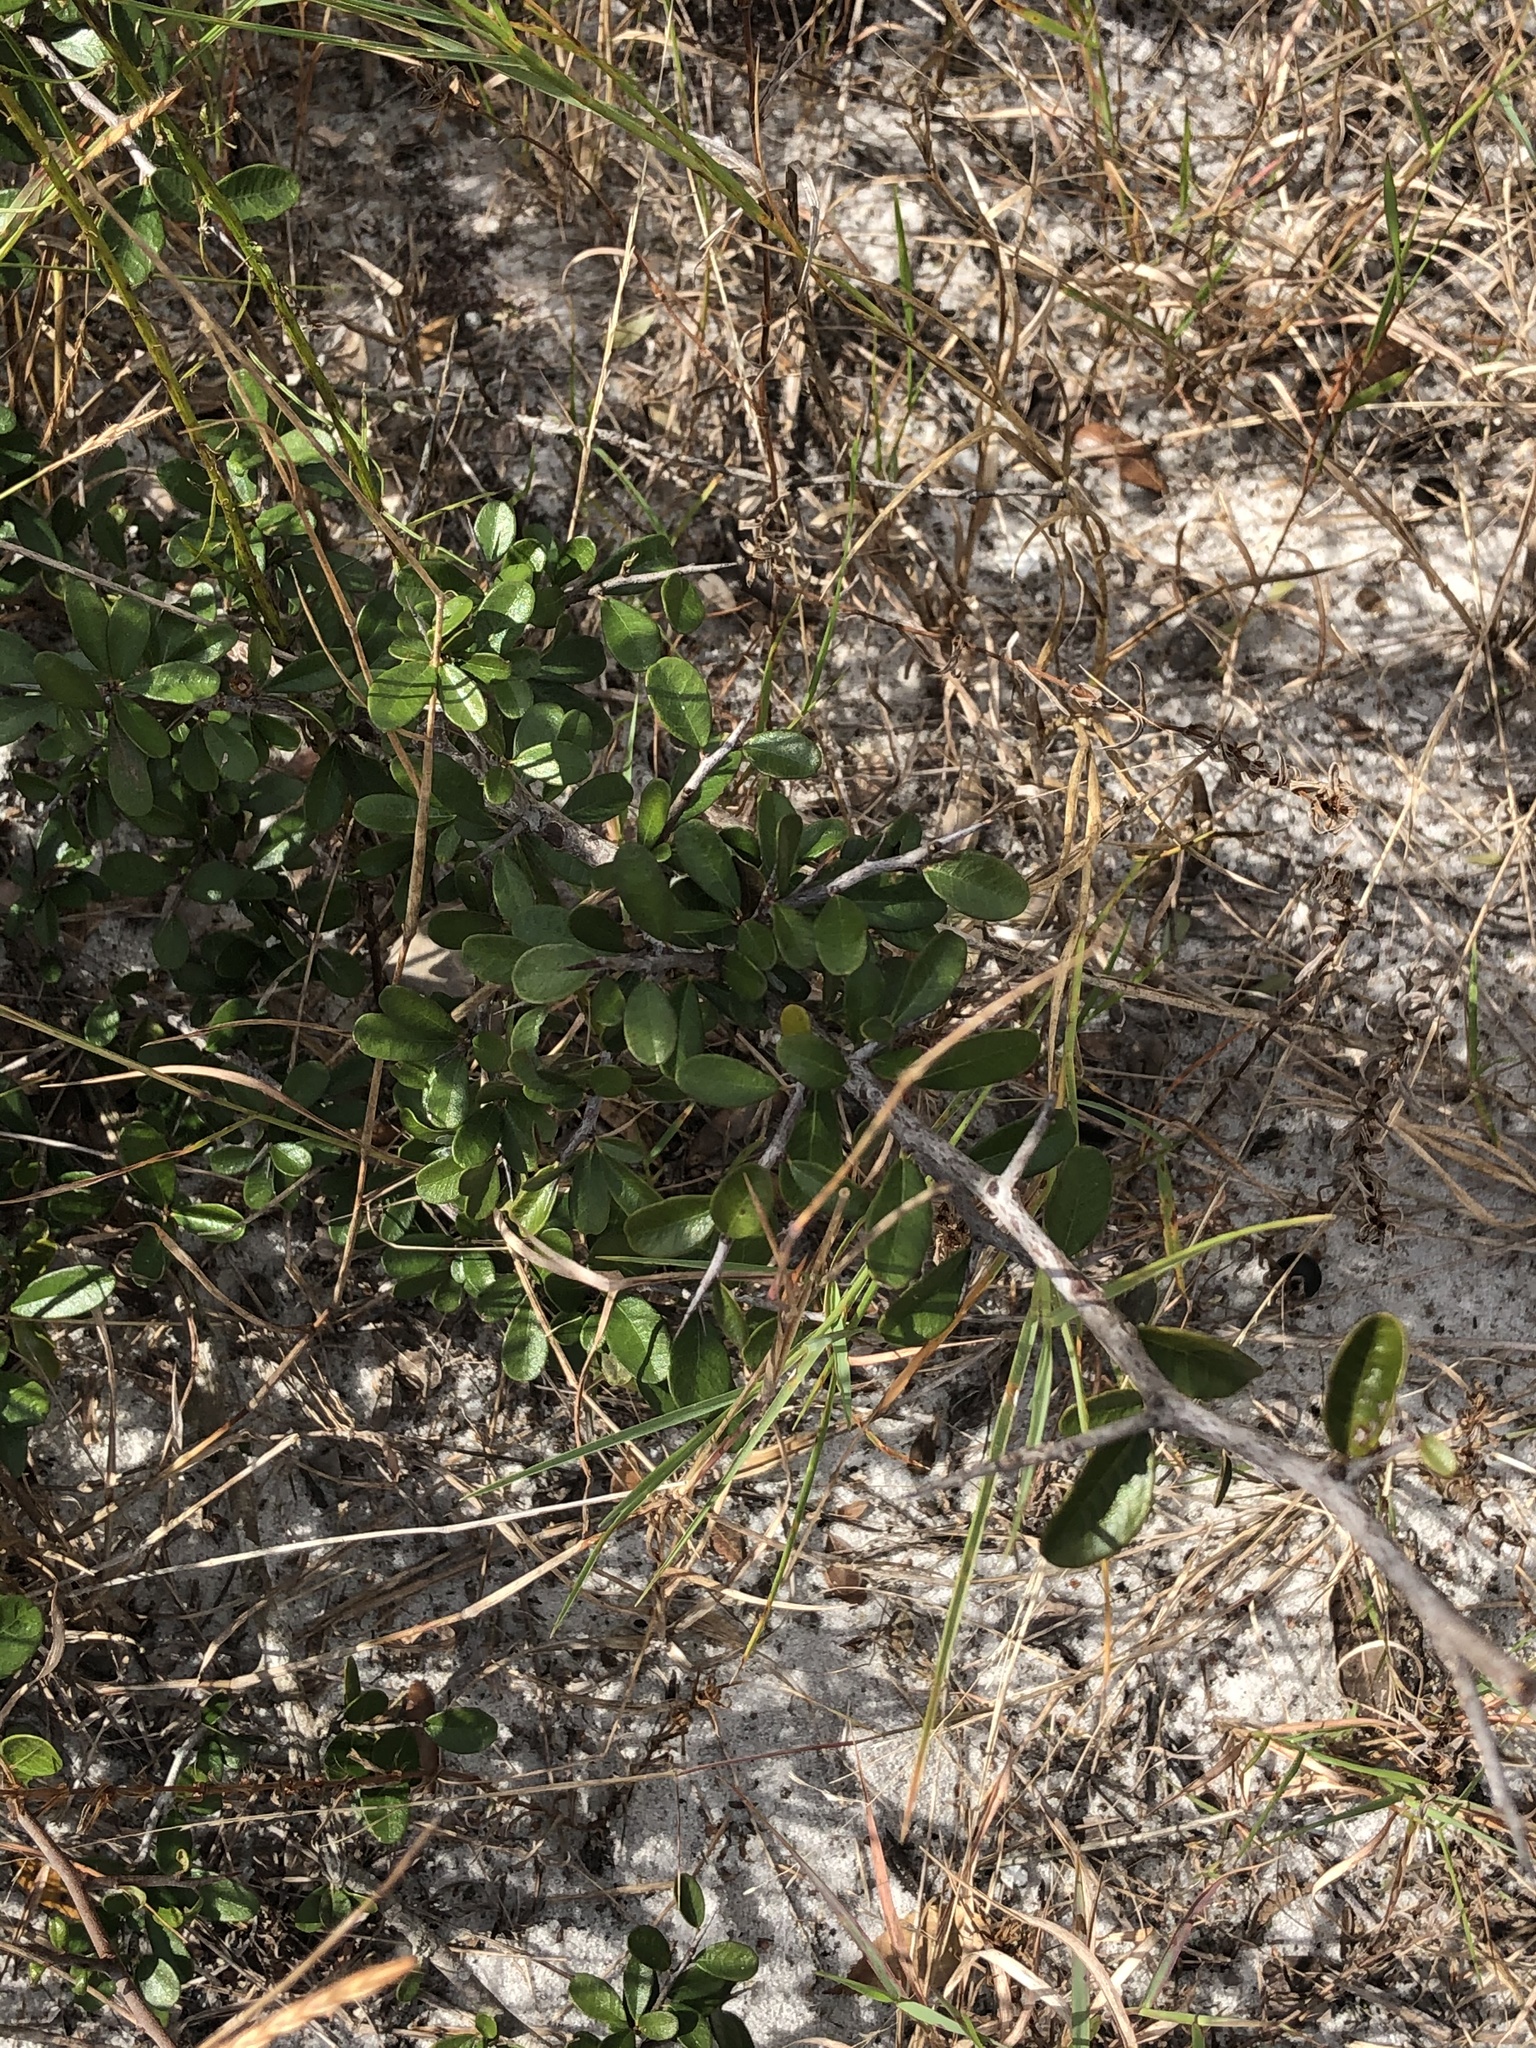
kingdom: Plantae
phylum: Tracheophyta
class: Magnoliopsida
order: Ericales
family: Sapotaceae
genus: Sideroxylon
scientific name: Sideroxylon tenax
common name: Tough-buckthorn
